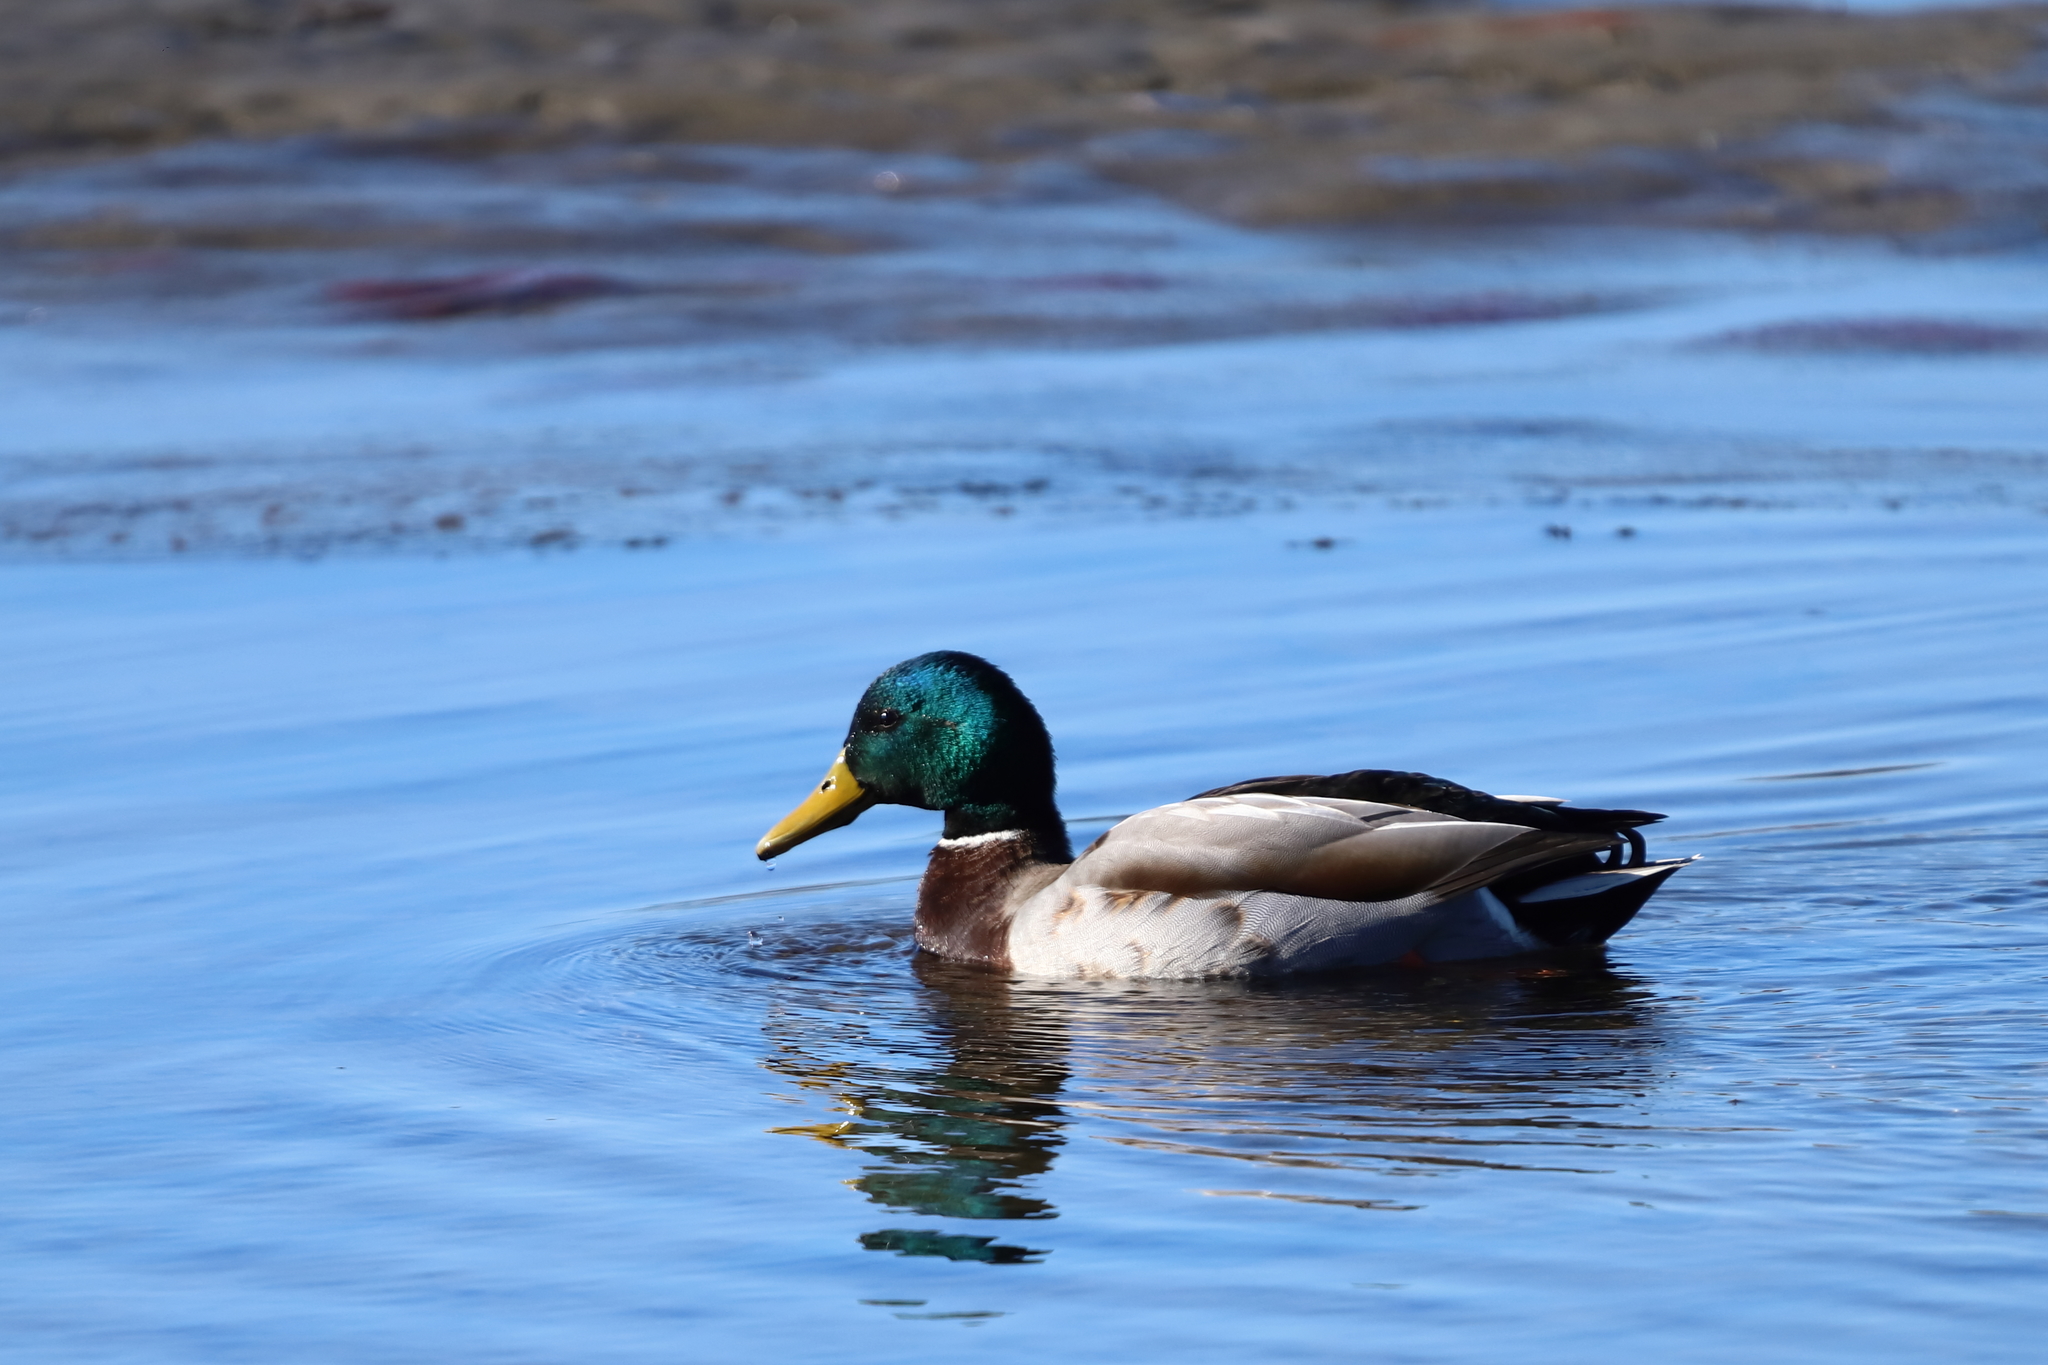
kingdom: Animalia
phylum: Chordata
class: Aves
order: Anseriformes
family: Anatidae
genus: Anas
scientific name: Anas platyrhynchos
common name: Mallard
